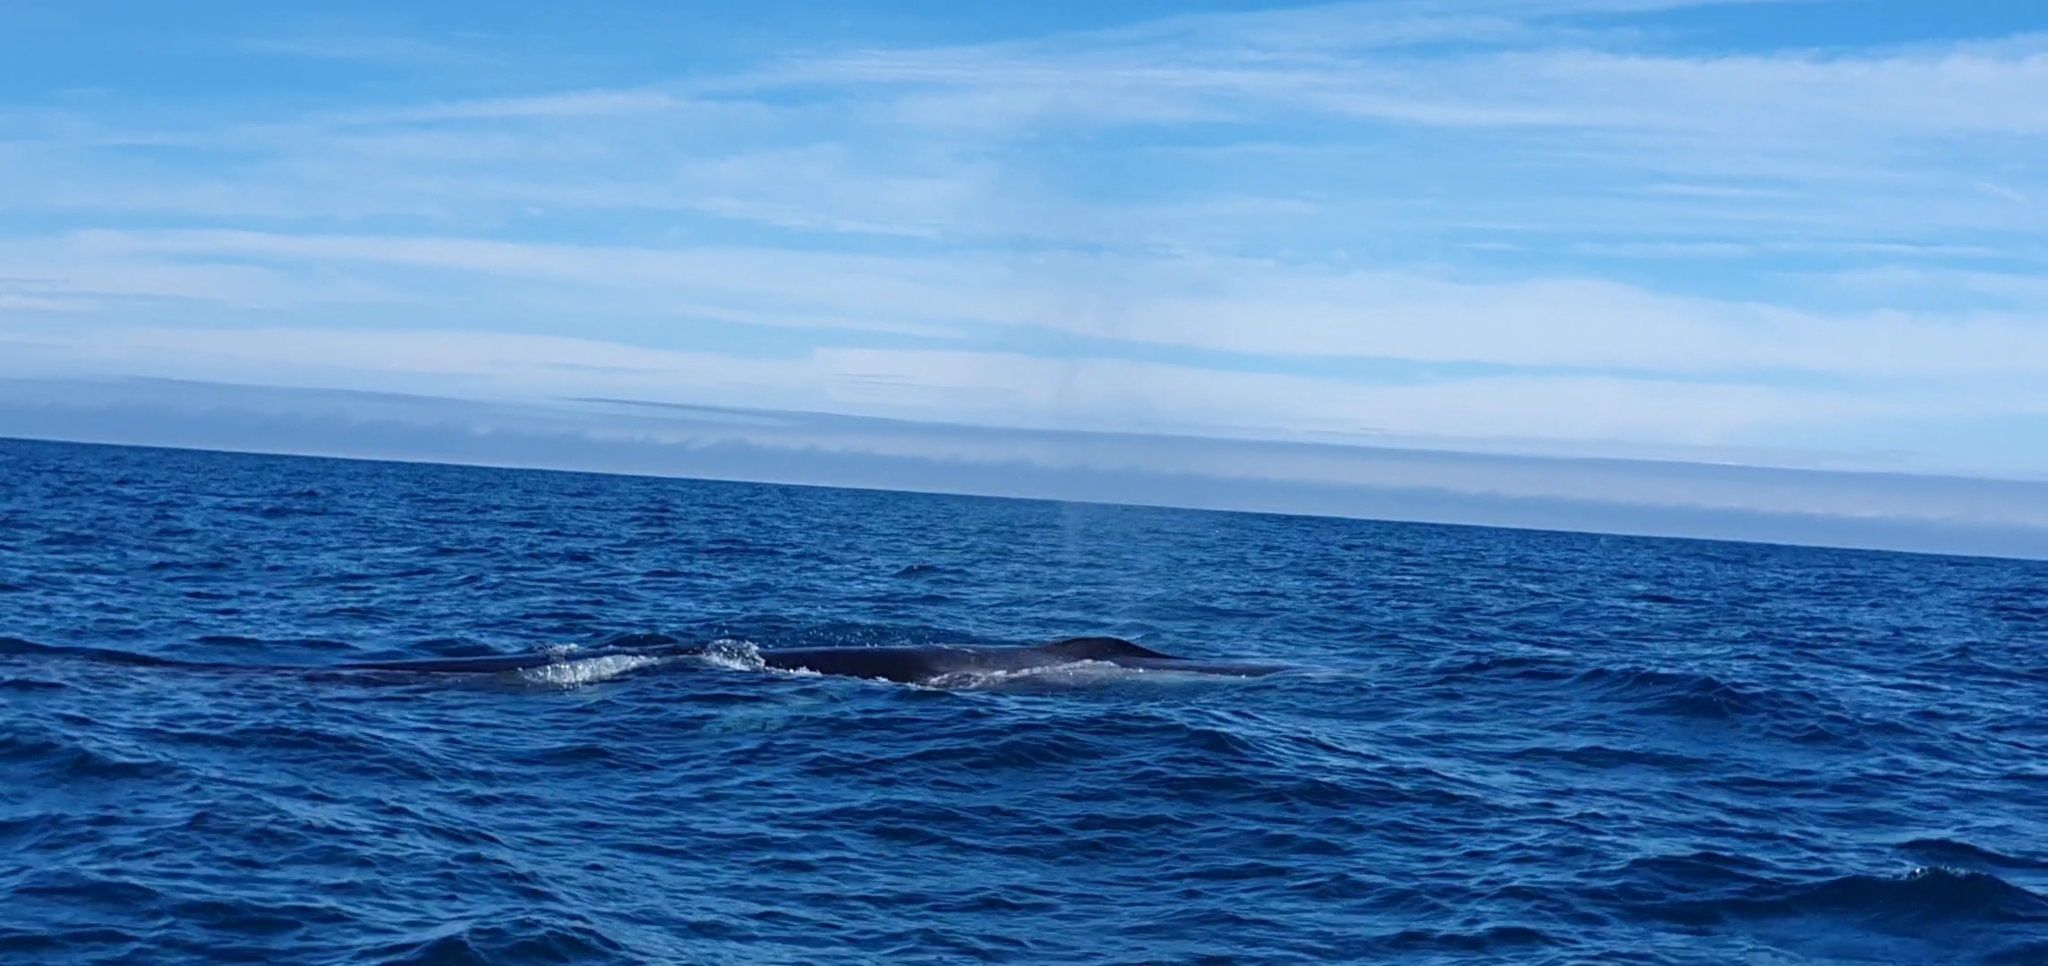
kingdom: Animalia
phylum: Chordata
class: Mammalia
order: Cetacea
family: Balaenopteridae
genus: Balaenoptera
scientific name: Balaenoptera physalus
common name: Fin whale
